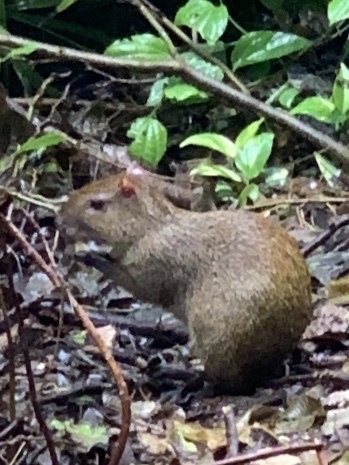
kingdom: Animalia
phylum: Chordata
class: Mammalia
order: Rodentia
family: Dasyproctidae
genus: Dasyprocta
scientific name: Dasyprocta punctata
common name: Central american agouti
